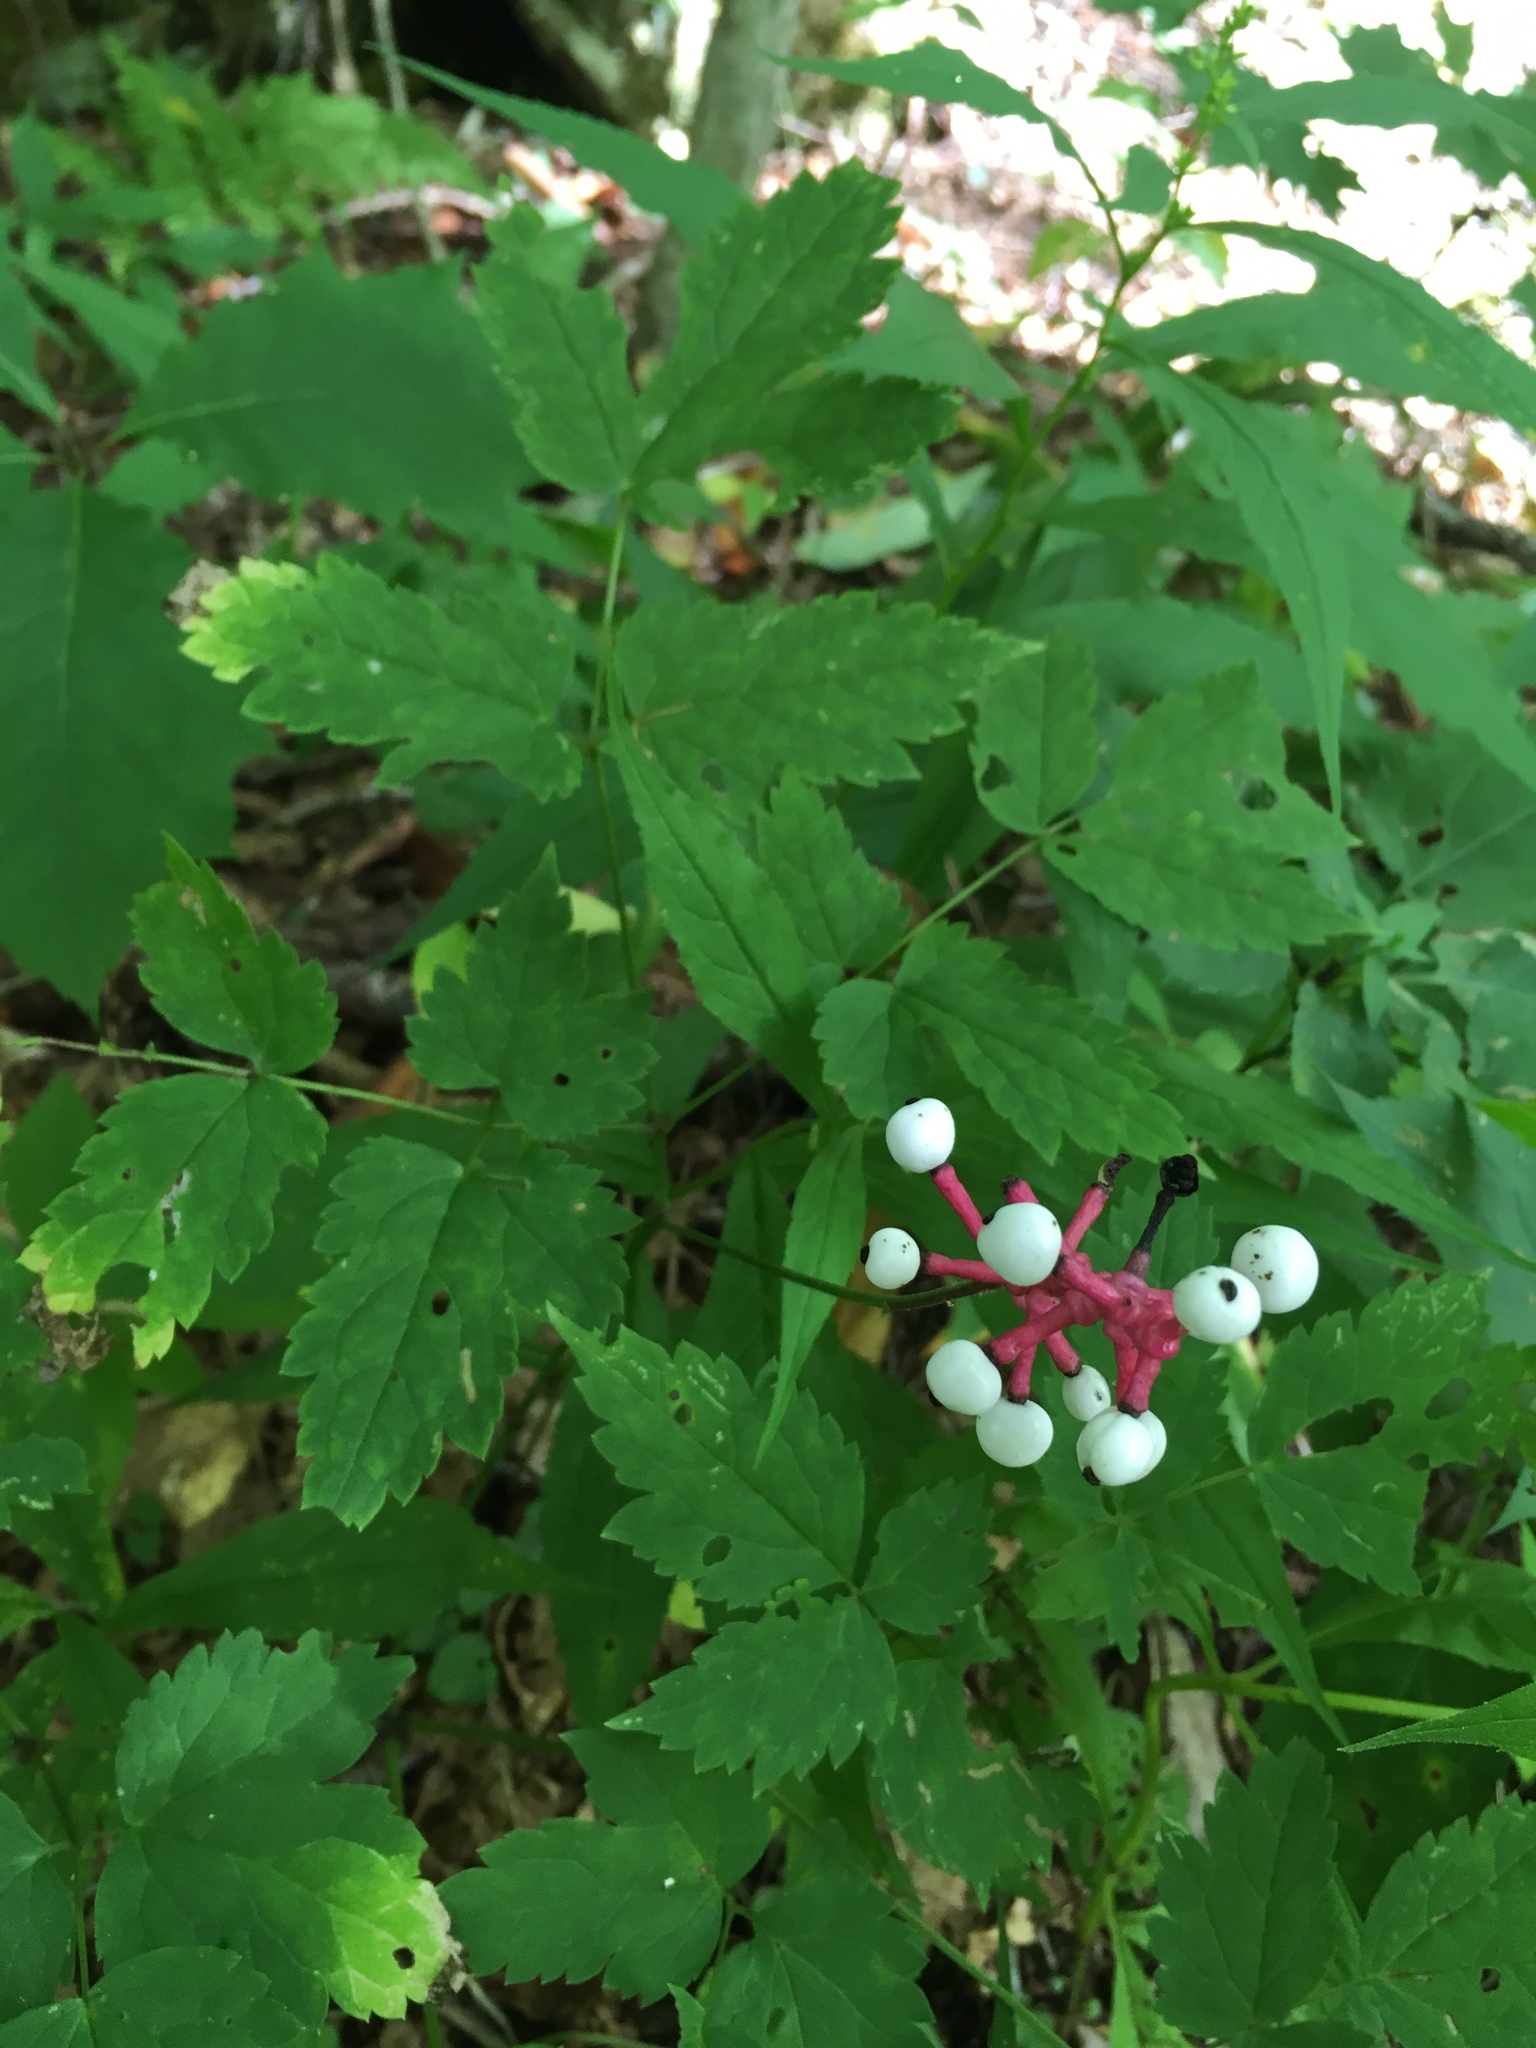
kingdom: Plantae
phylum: Tracheophyta
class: Magnoliopsida
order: Ranunculales
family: Ranunculaceae
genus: Actaea
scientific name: Actaea pachypoda
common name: Doll's-eyes
